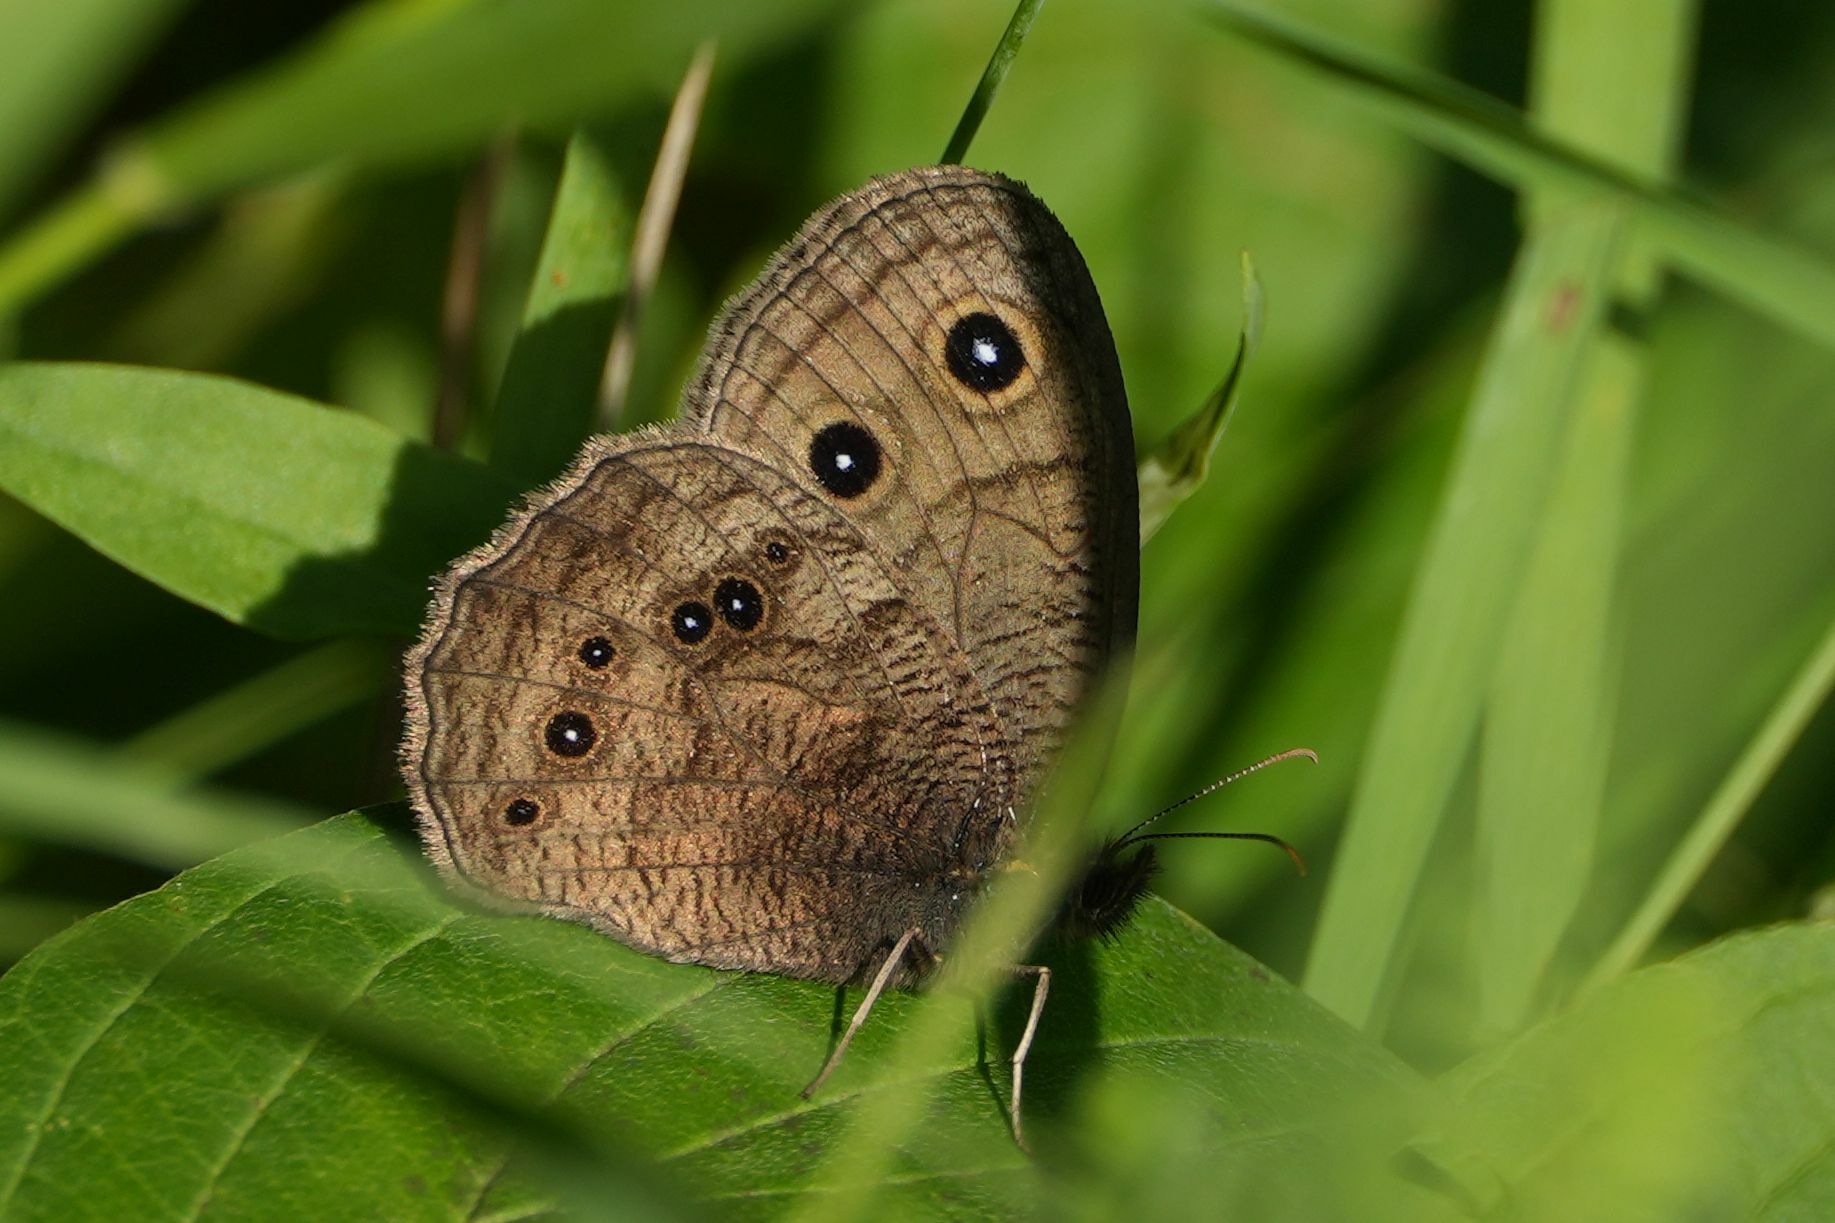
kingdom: Animalia
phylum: Arthropoda
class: Insecta
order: Lepidoptera
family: Nymphalidae
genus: Cercyonis
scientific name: Cercyonis pegala
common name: Common wood-nymph
